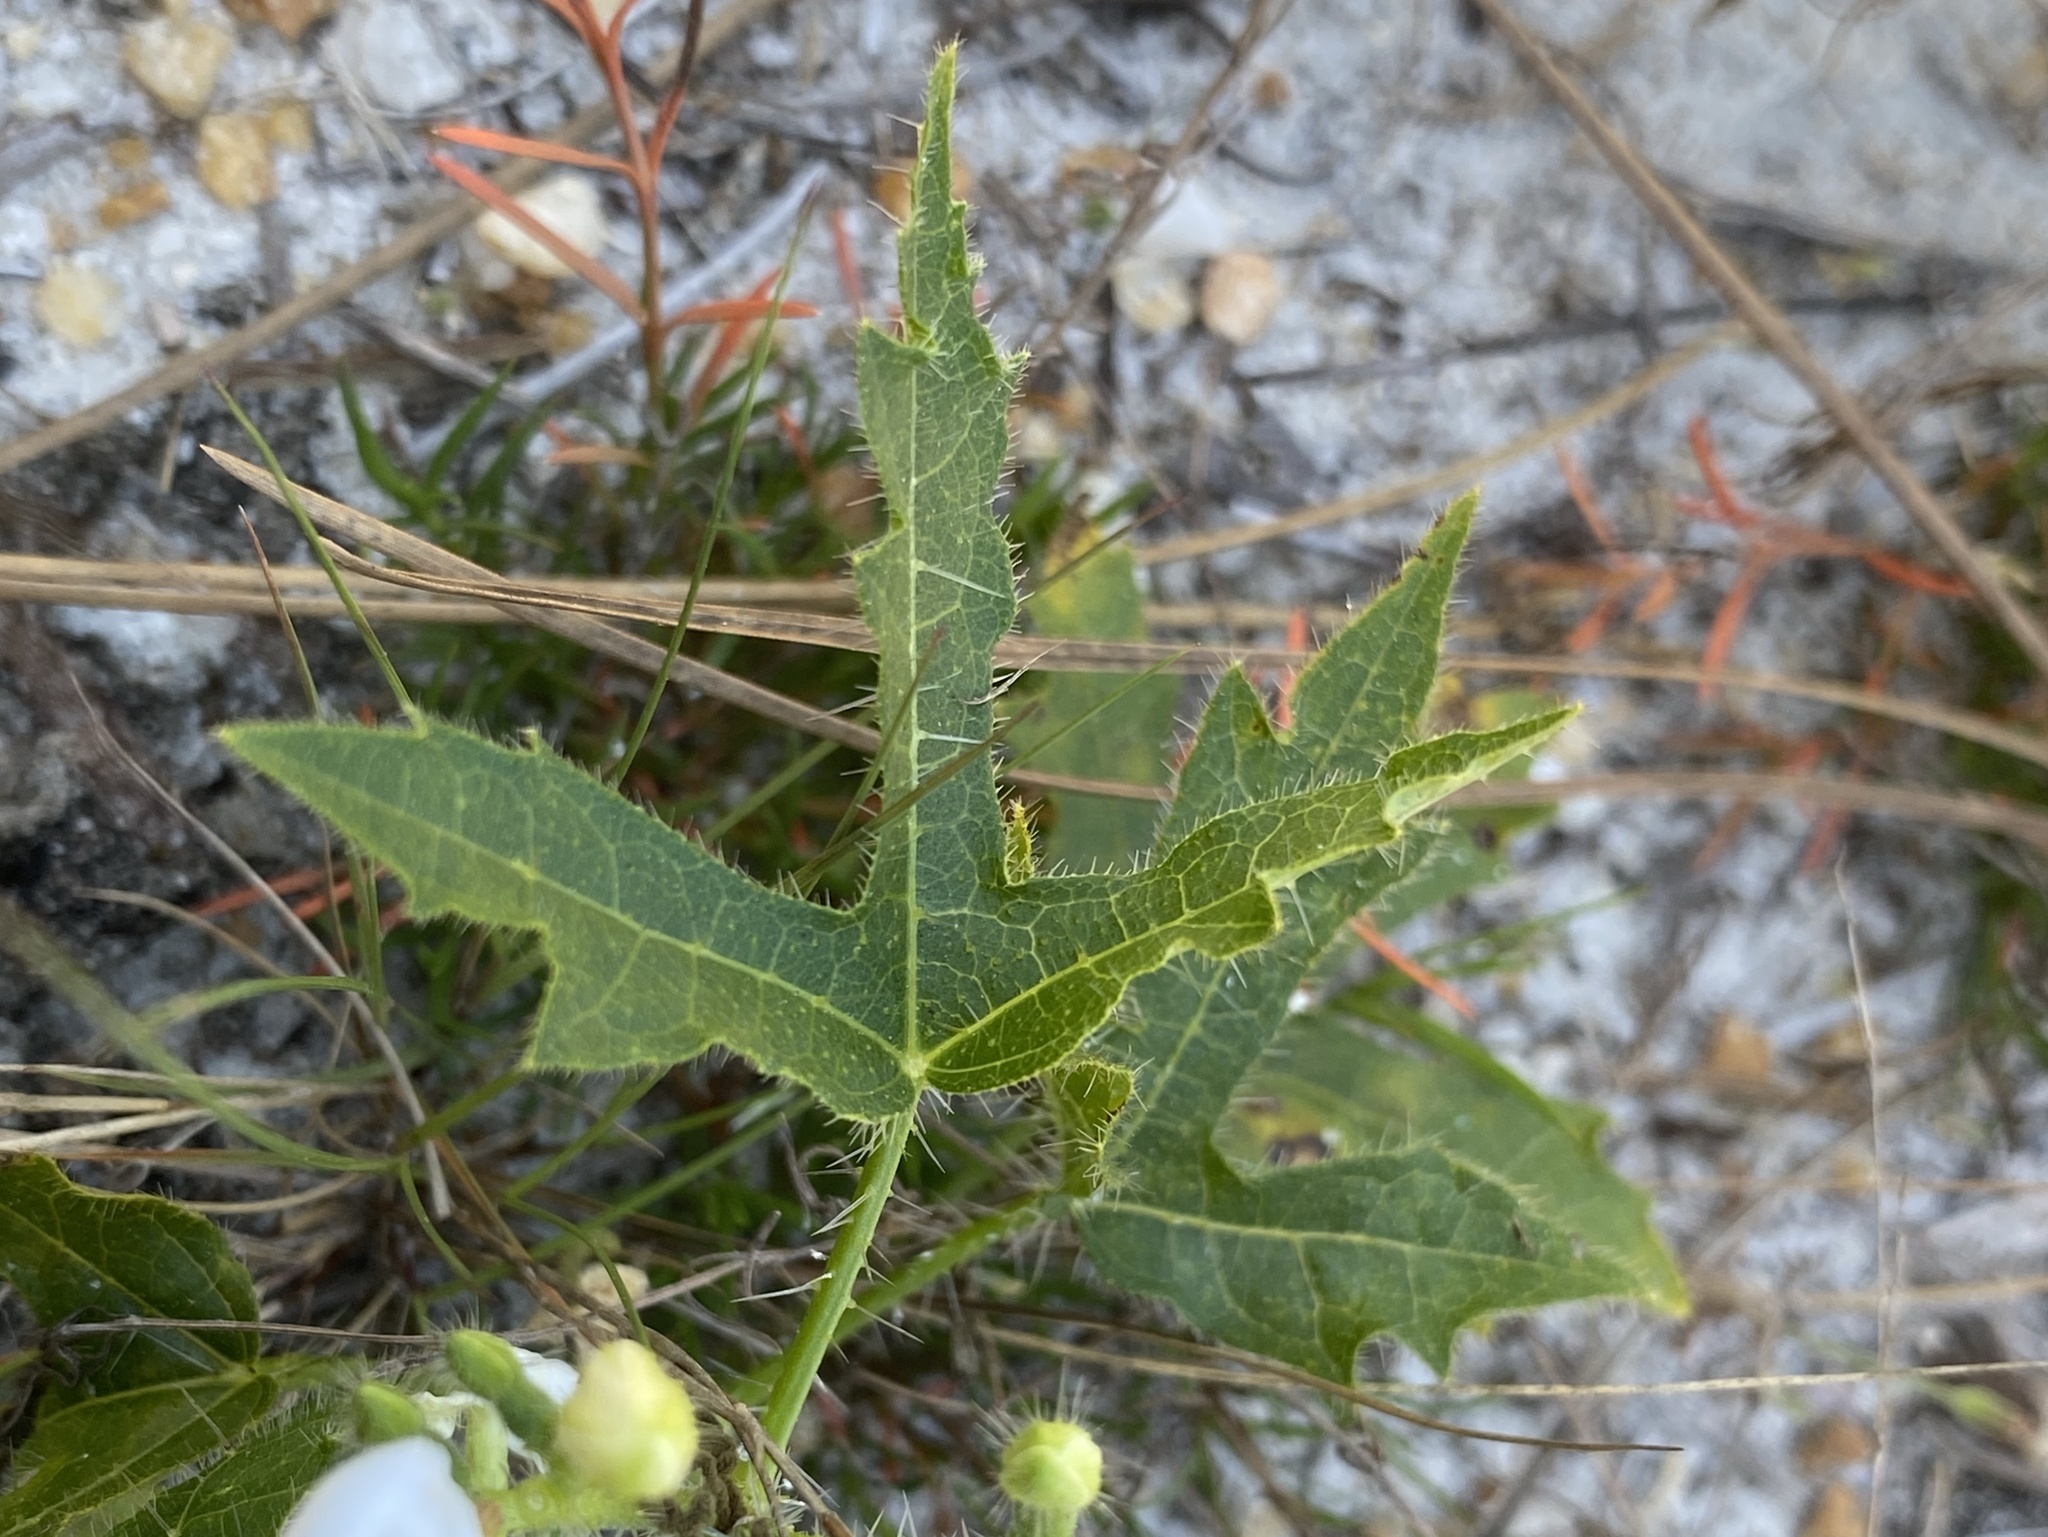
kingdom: Plantae
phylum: Tracheophyta
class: Magnoliopsida
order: Malpighiales
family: Euphorbiaceae
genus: Cnidoscolus
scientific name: Cnidoscolus stimulosus
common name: Bull-nettle
